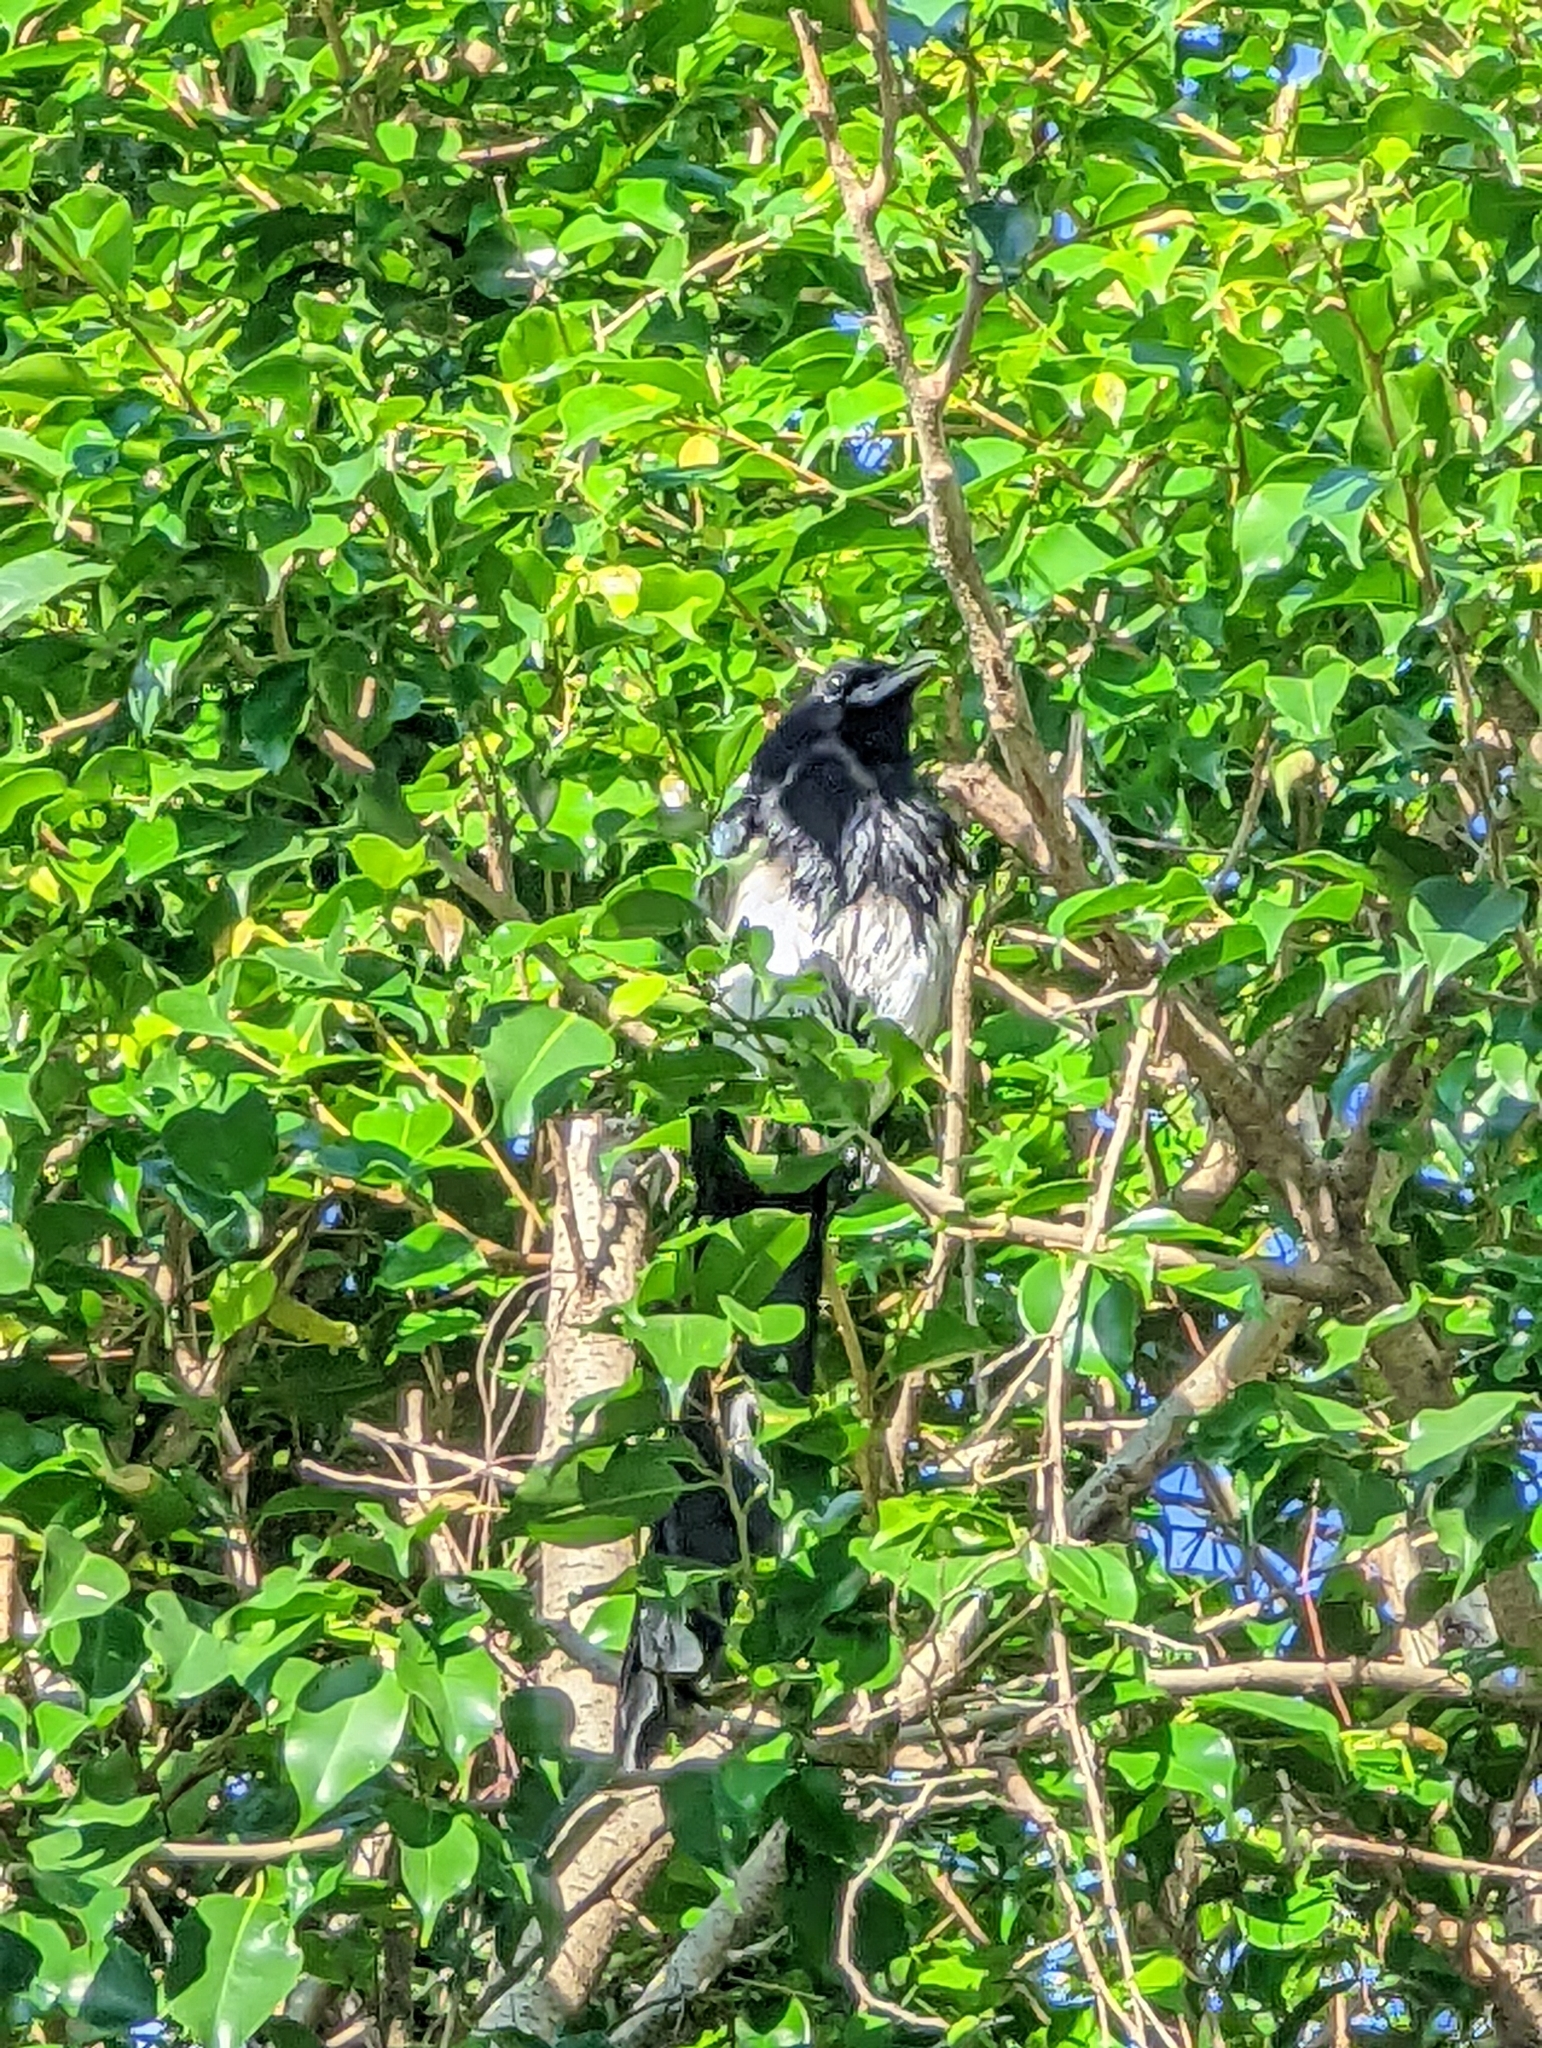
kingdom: Animalia
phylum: Chordata
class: Aves
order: Passeriformes
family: Corvidae
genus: Pica
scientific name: Pica serica
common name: Oriental magpie
